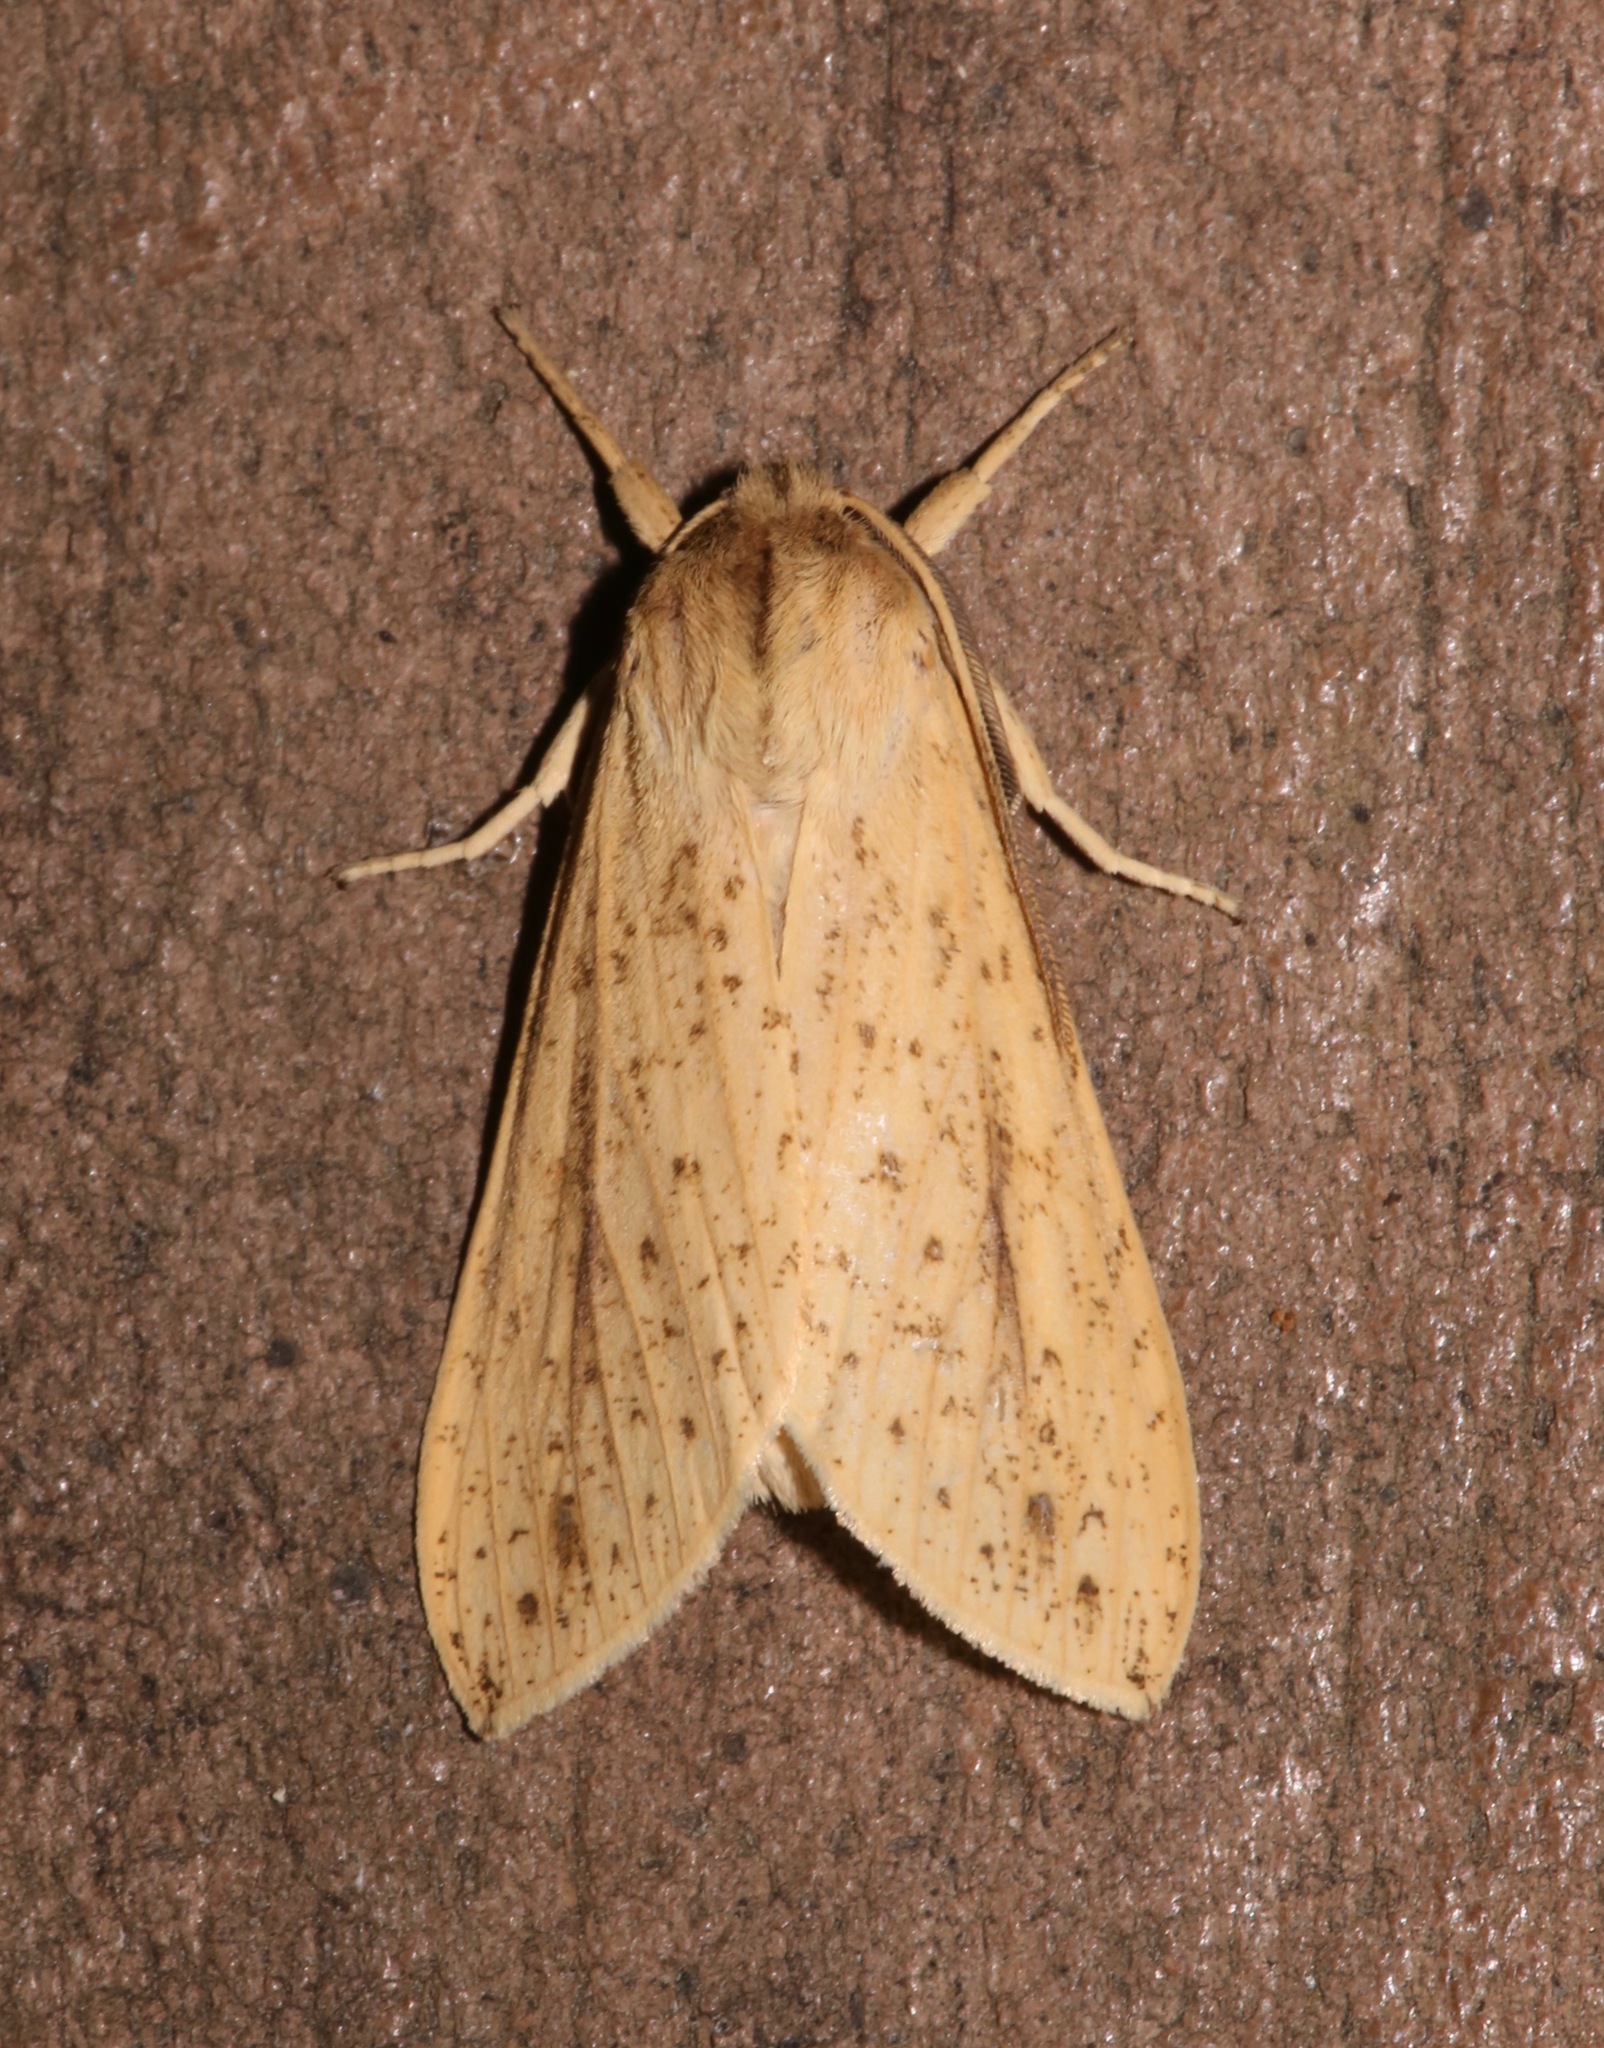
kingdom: Animalia
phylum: Arthropoda
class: Insecta
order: Lepidoptera
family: Erebidae
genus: Leucanopsis
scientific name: Leucanopsis longa
